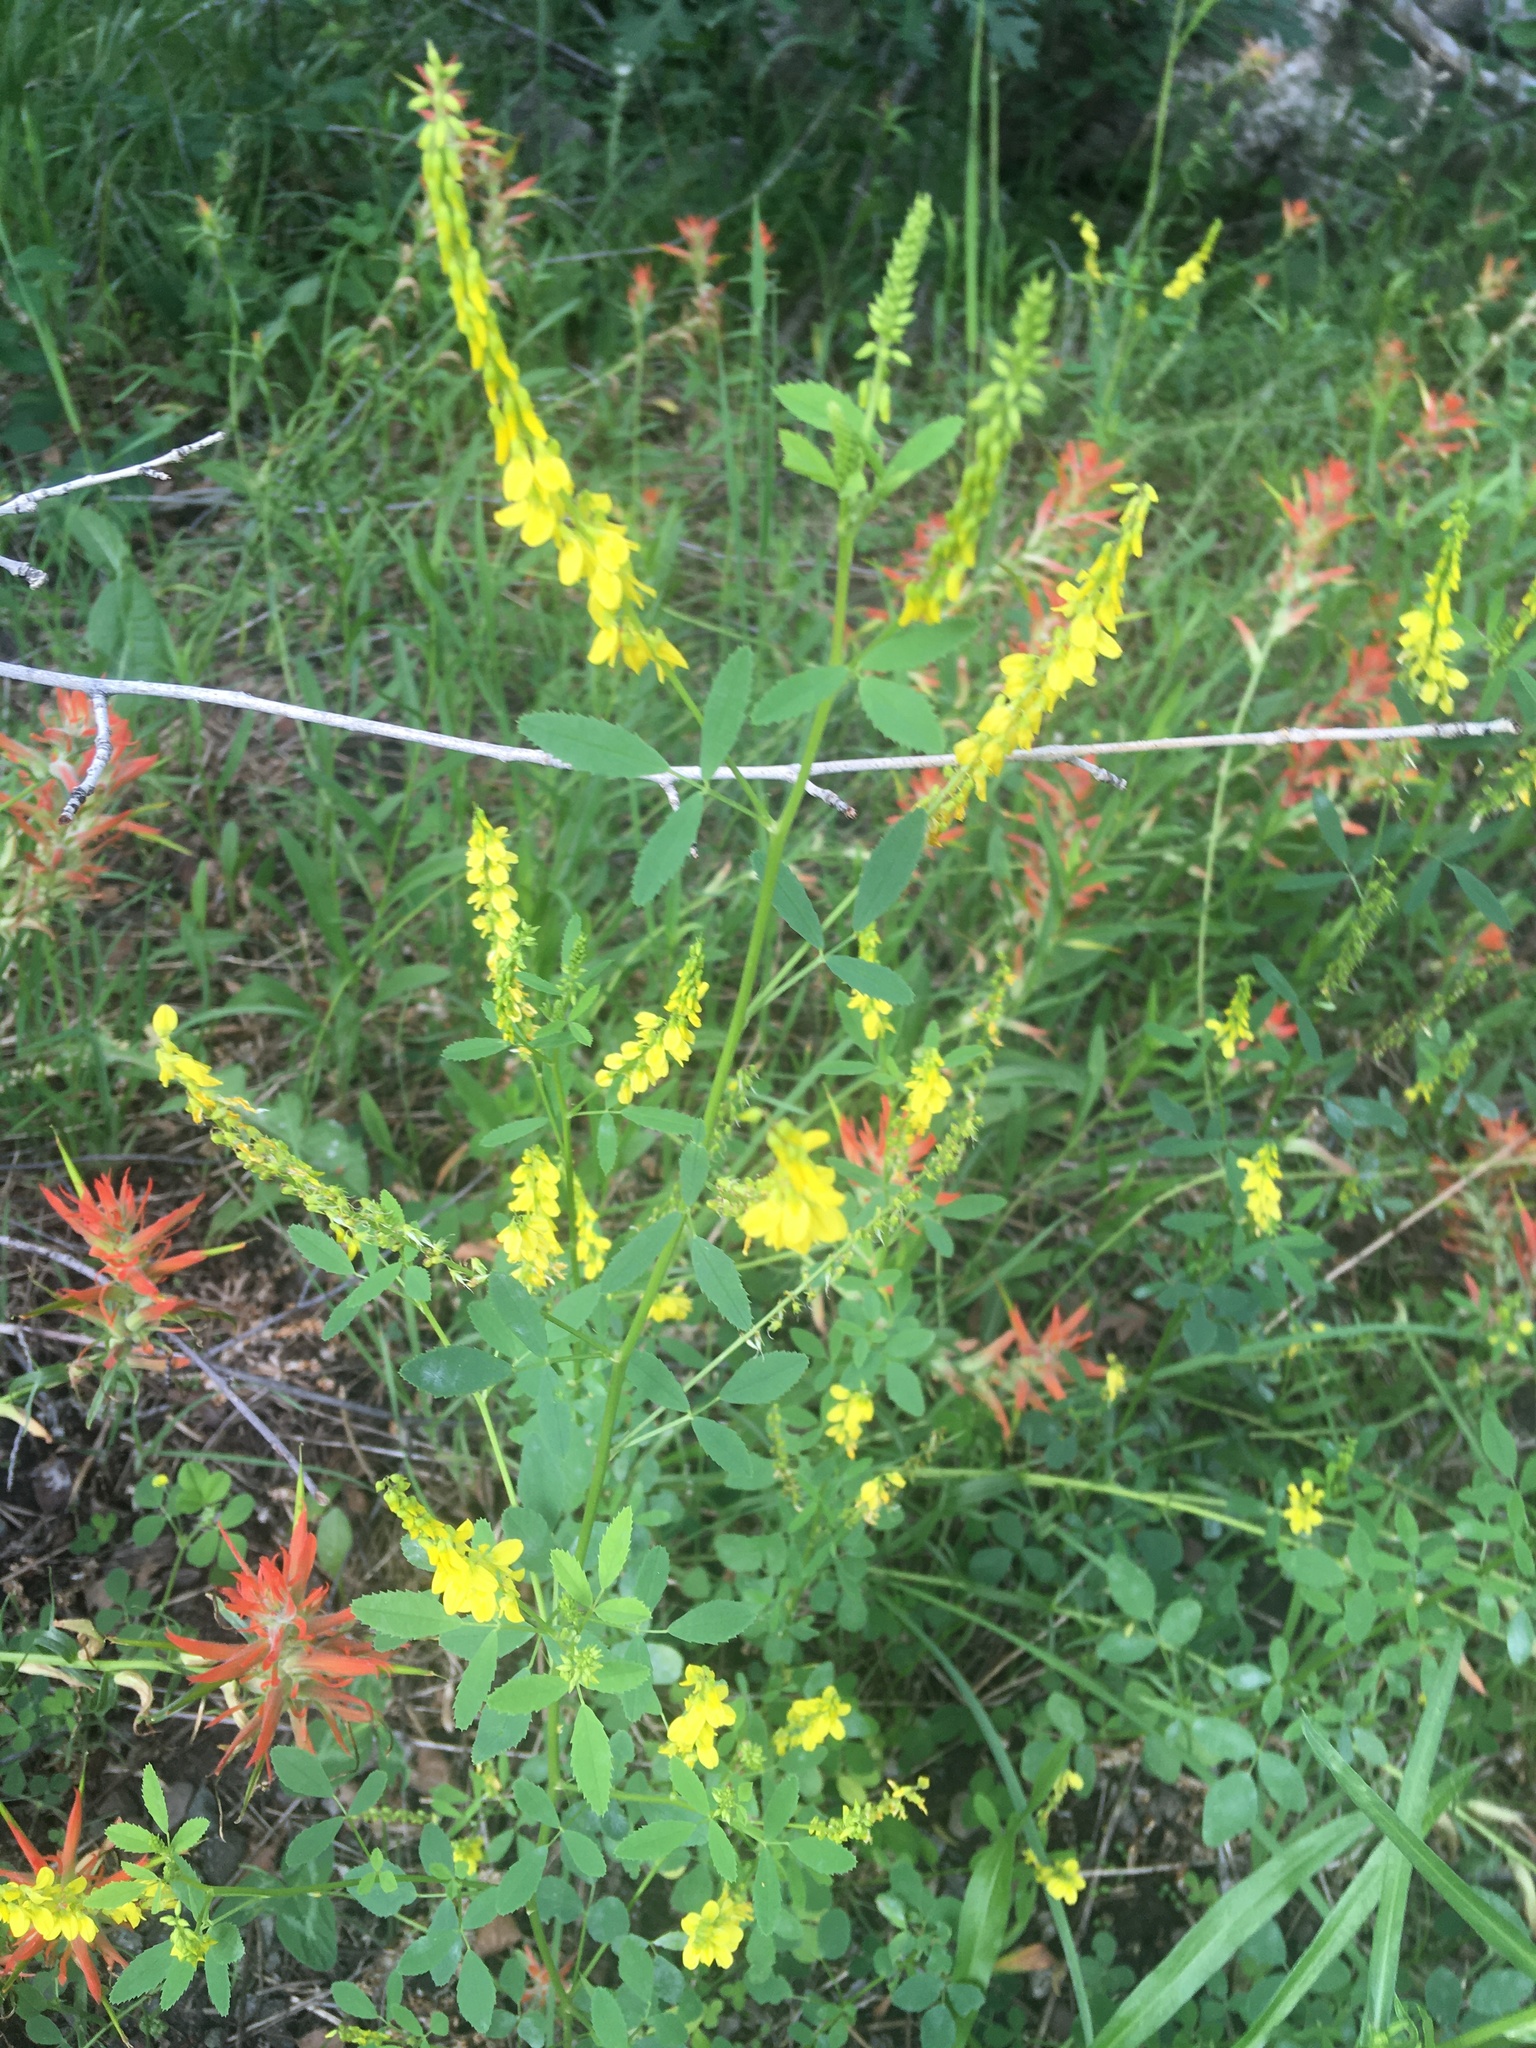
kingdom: Plantae
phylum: Tracheophyta
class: Magnoliopsida
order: Fabales
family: Fabaceae
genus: Melilotus
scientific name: Melilotus officinalis
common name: Sweetclover
